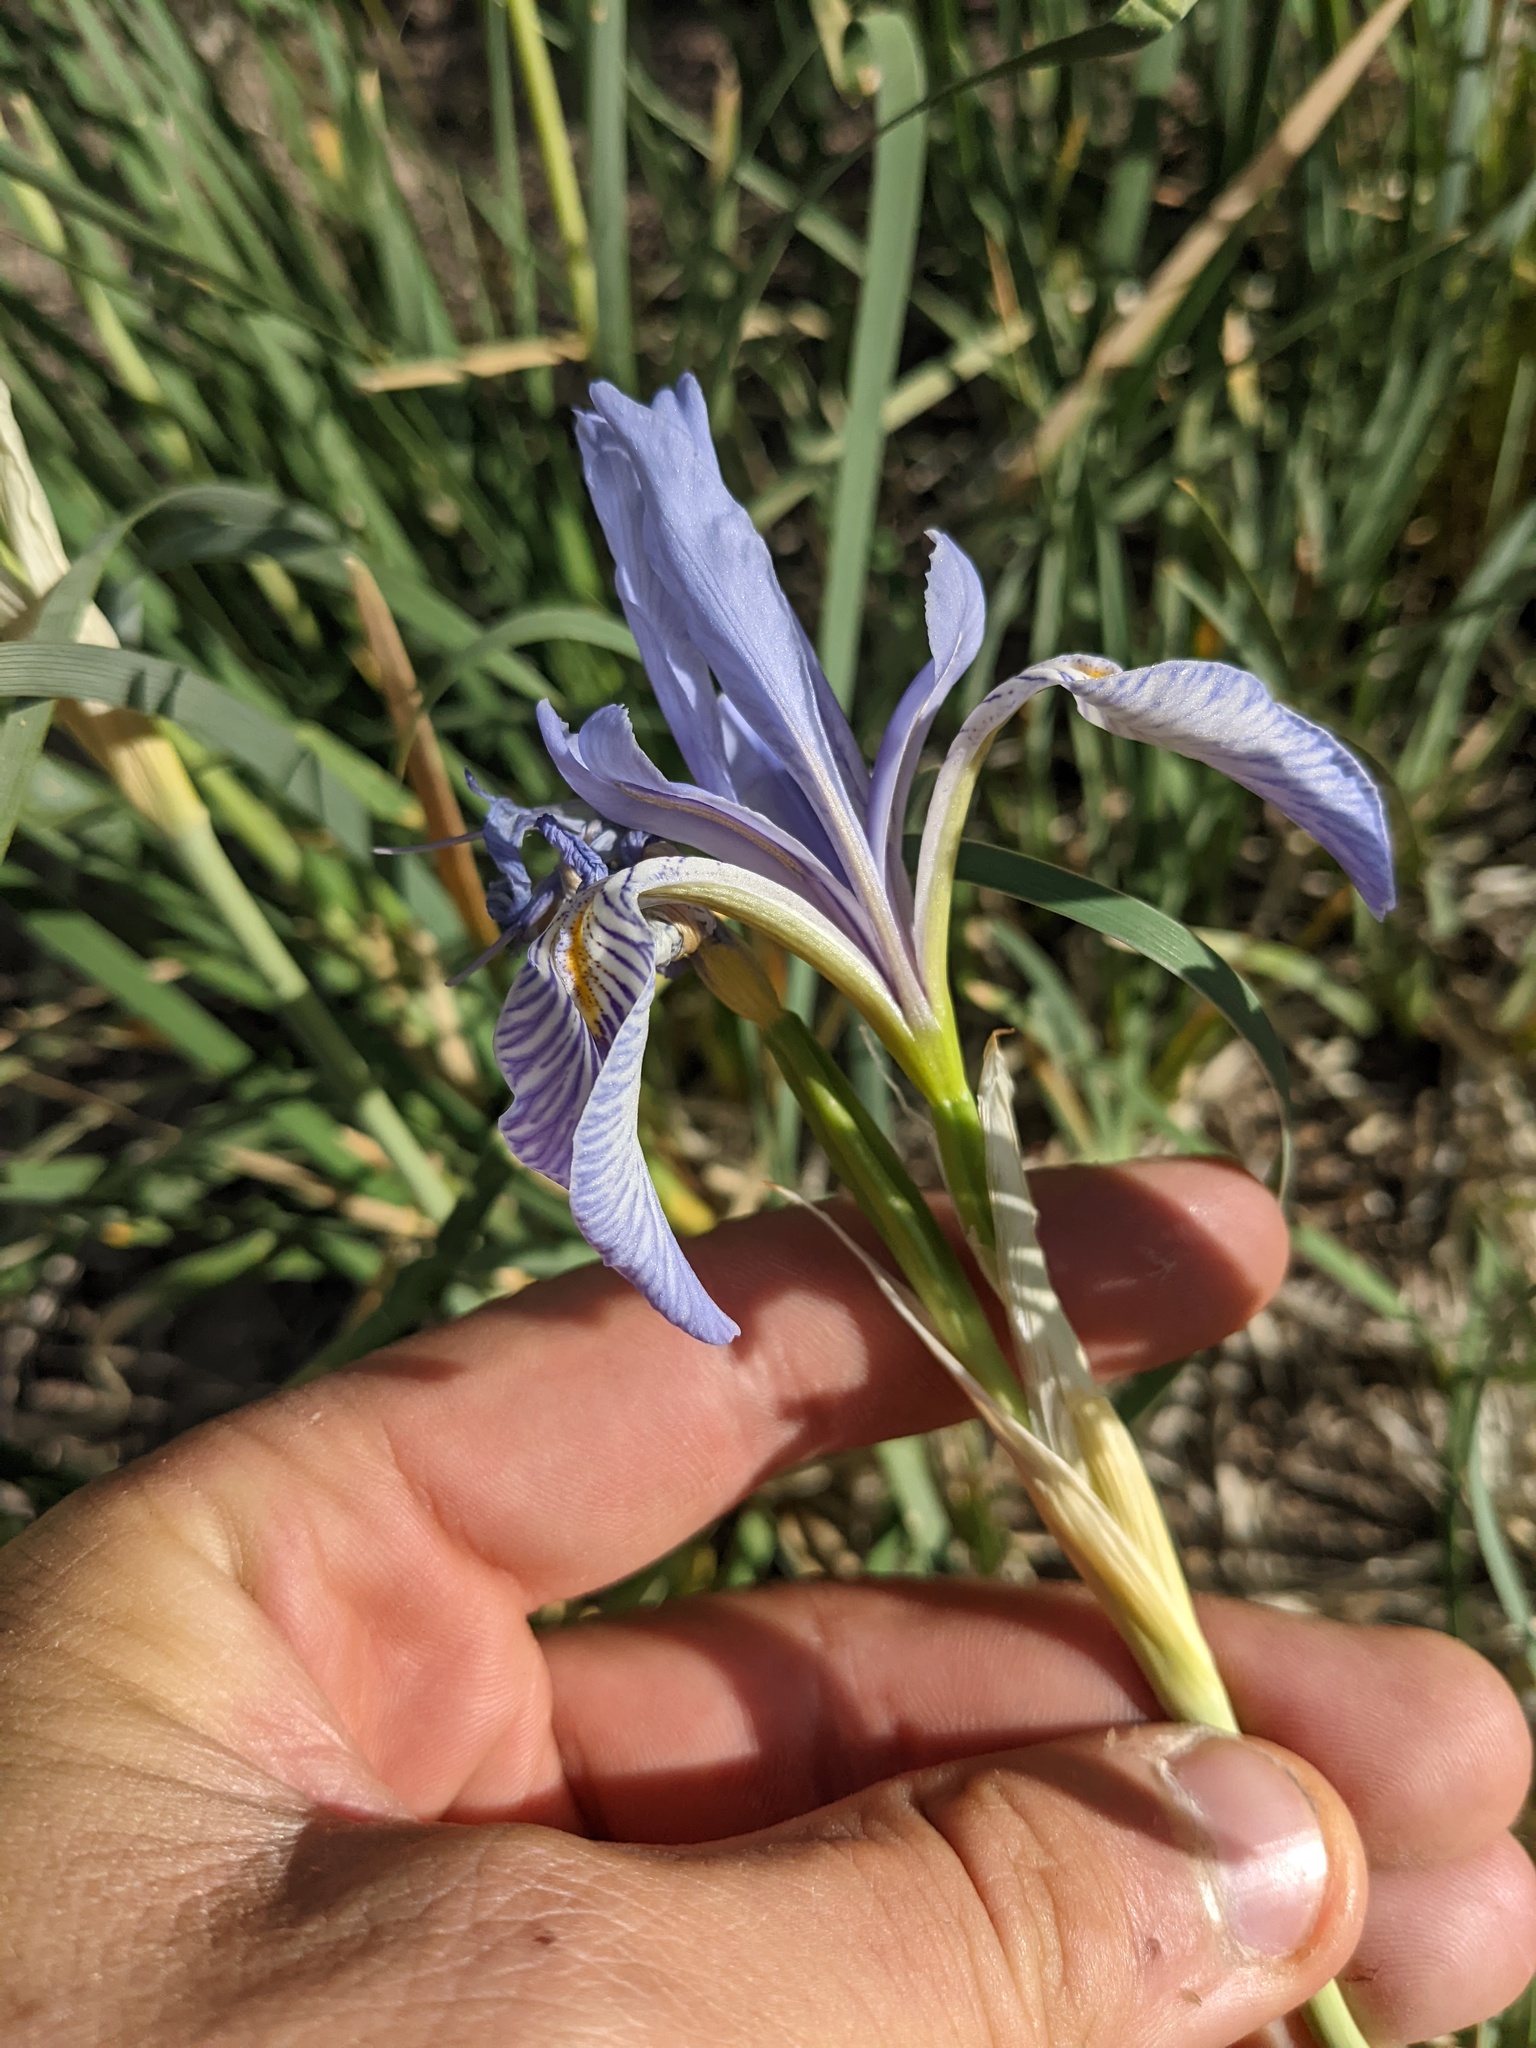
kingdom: Plantae
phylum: Tracheophyta
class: Liliopsida
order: Asparagales
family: Iridaceae
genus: Iris
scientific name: Iris missouriensis
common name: Rocky mountain iris
